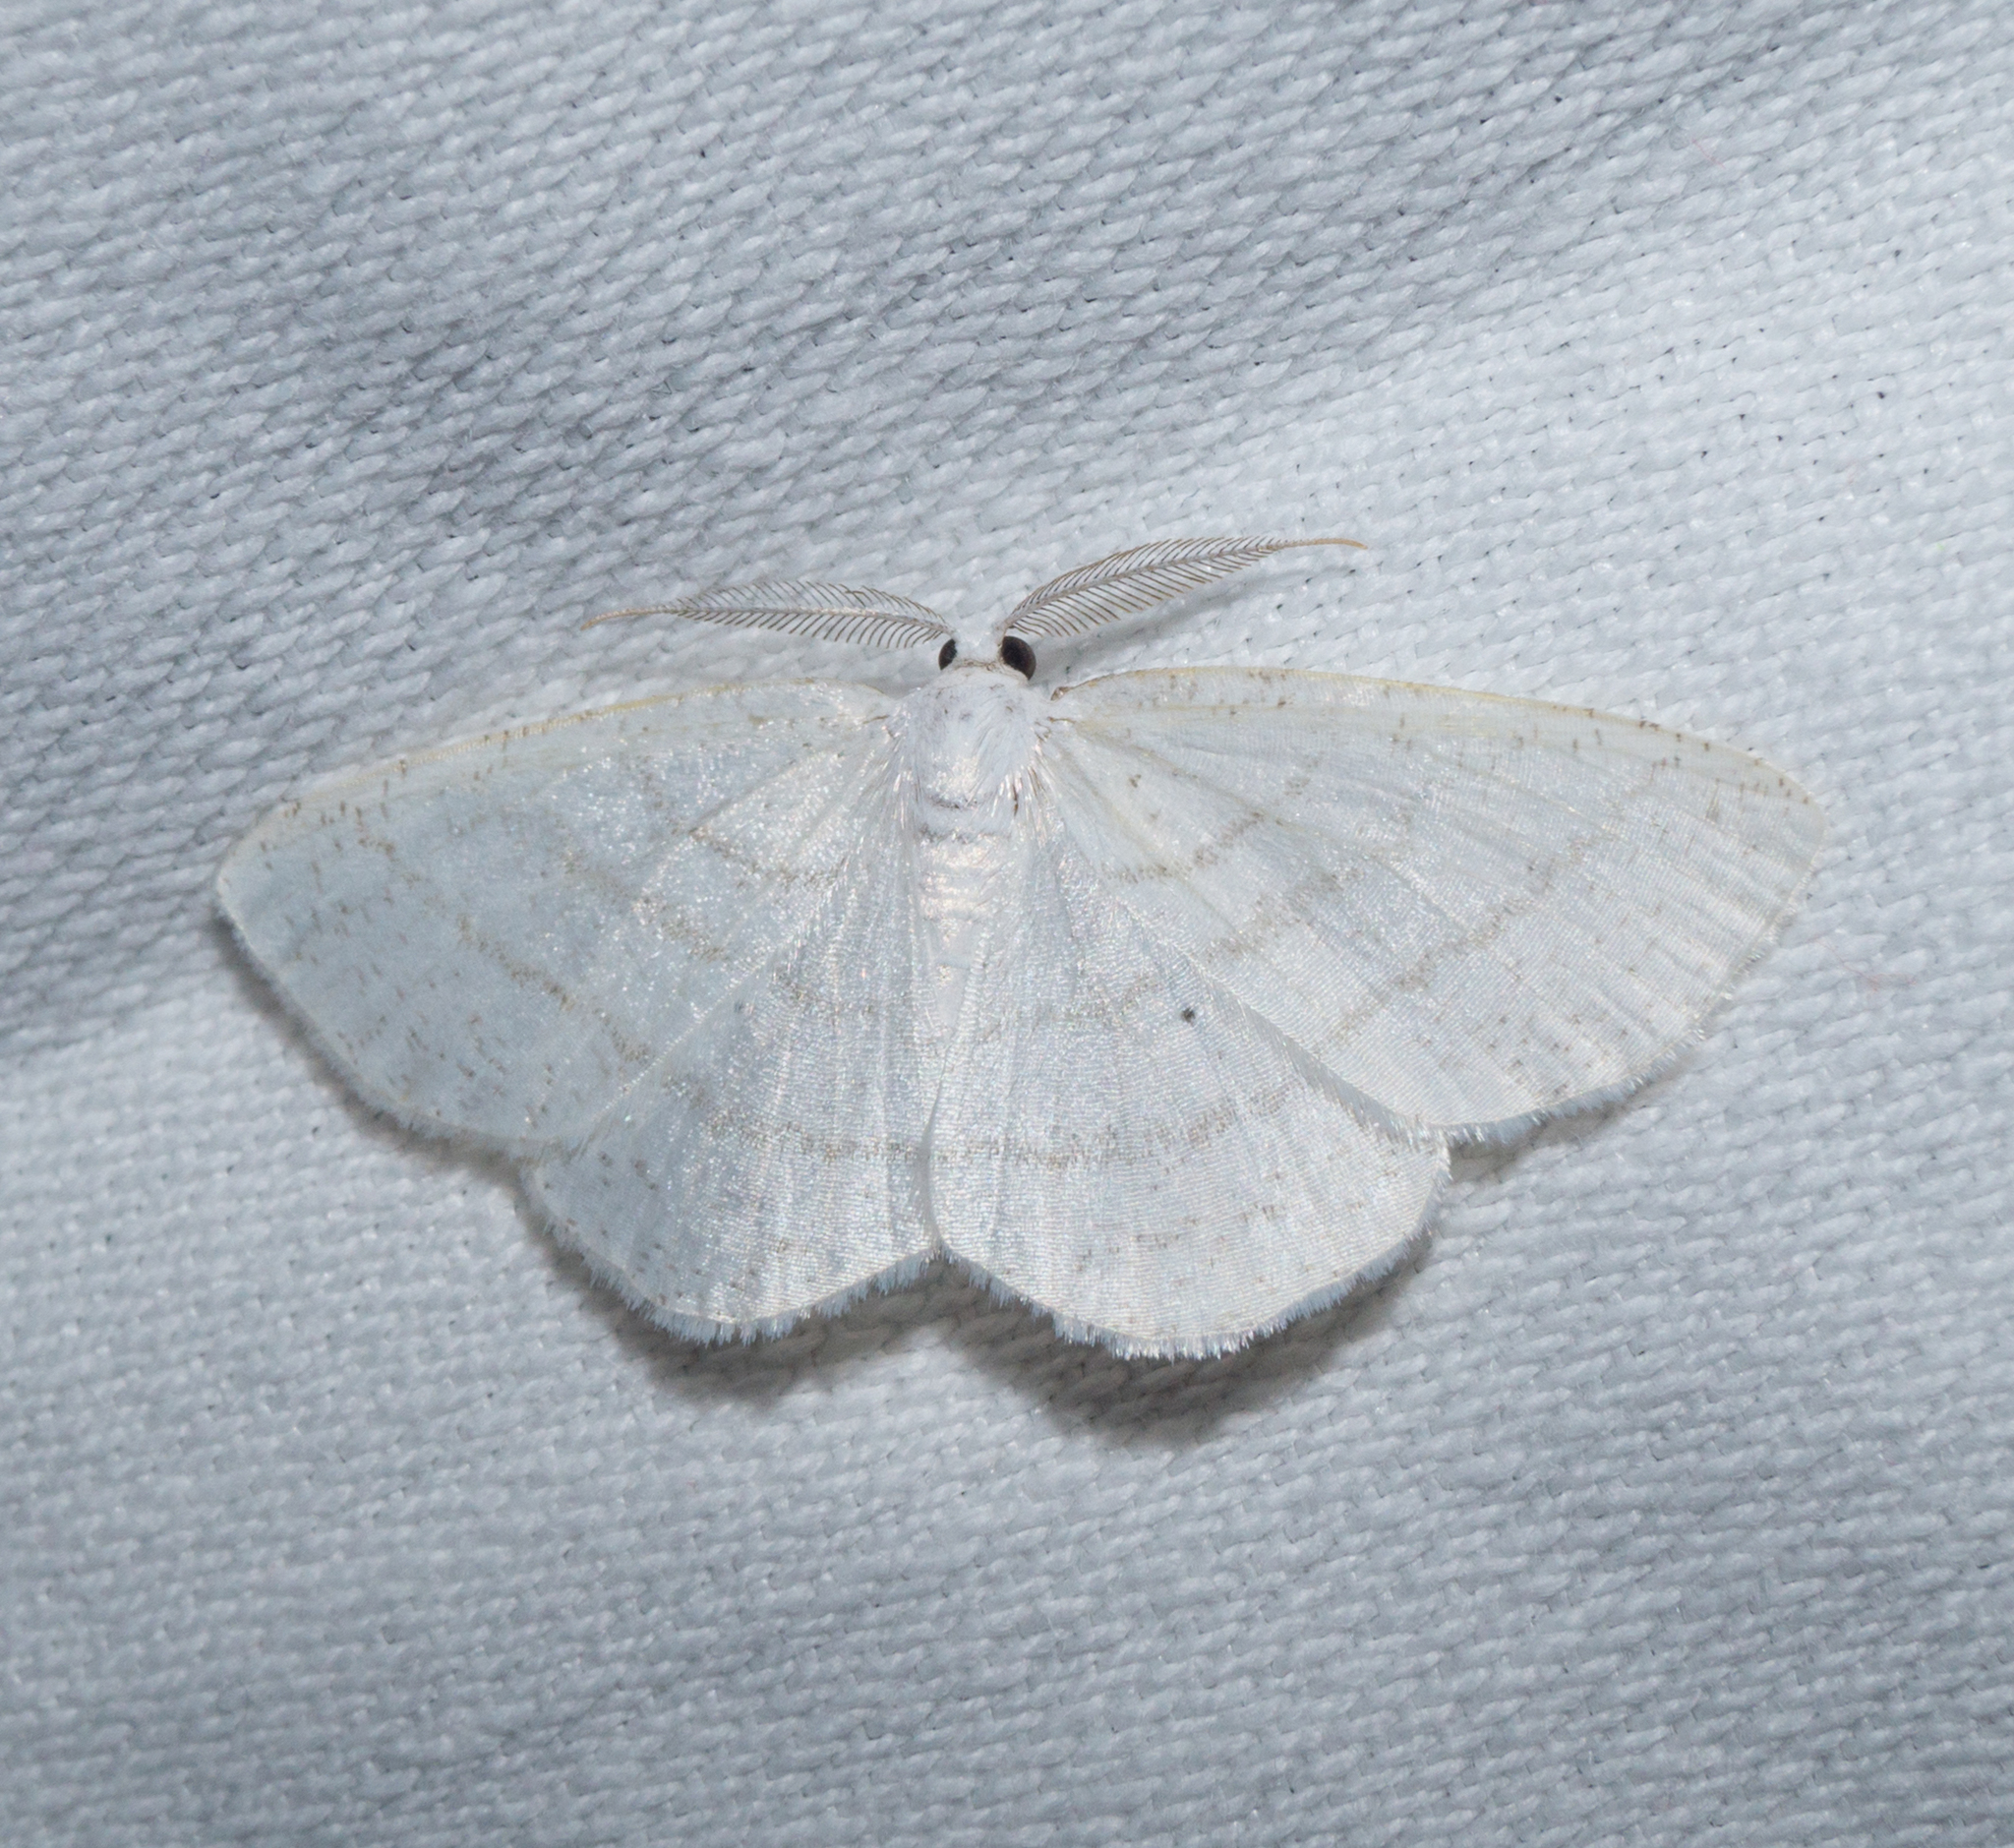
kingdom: Animalia
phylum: Arthropoda
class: Insecta
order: Lepidoptera
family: Geometridae
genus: Cabera
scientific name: Cabera pusaria
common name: Common white wave
